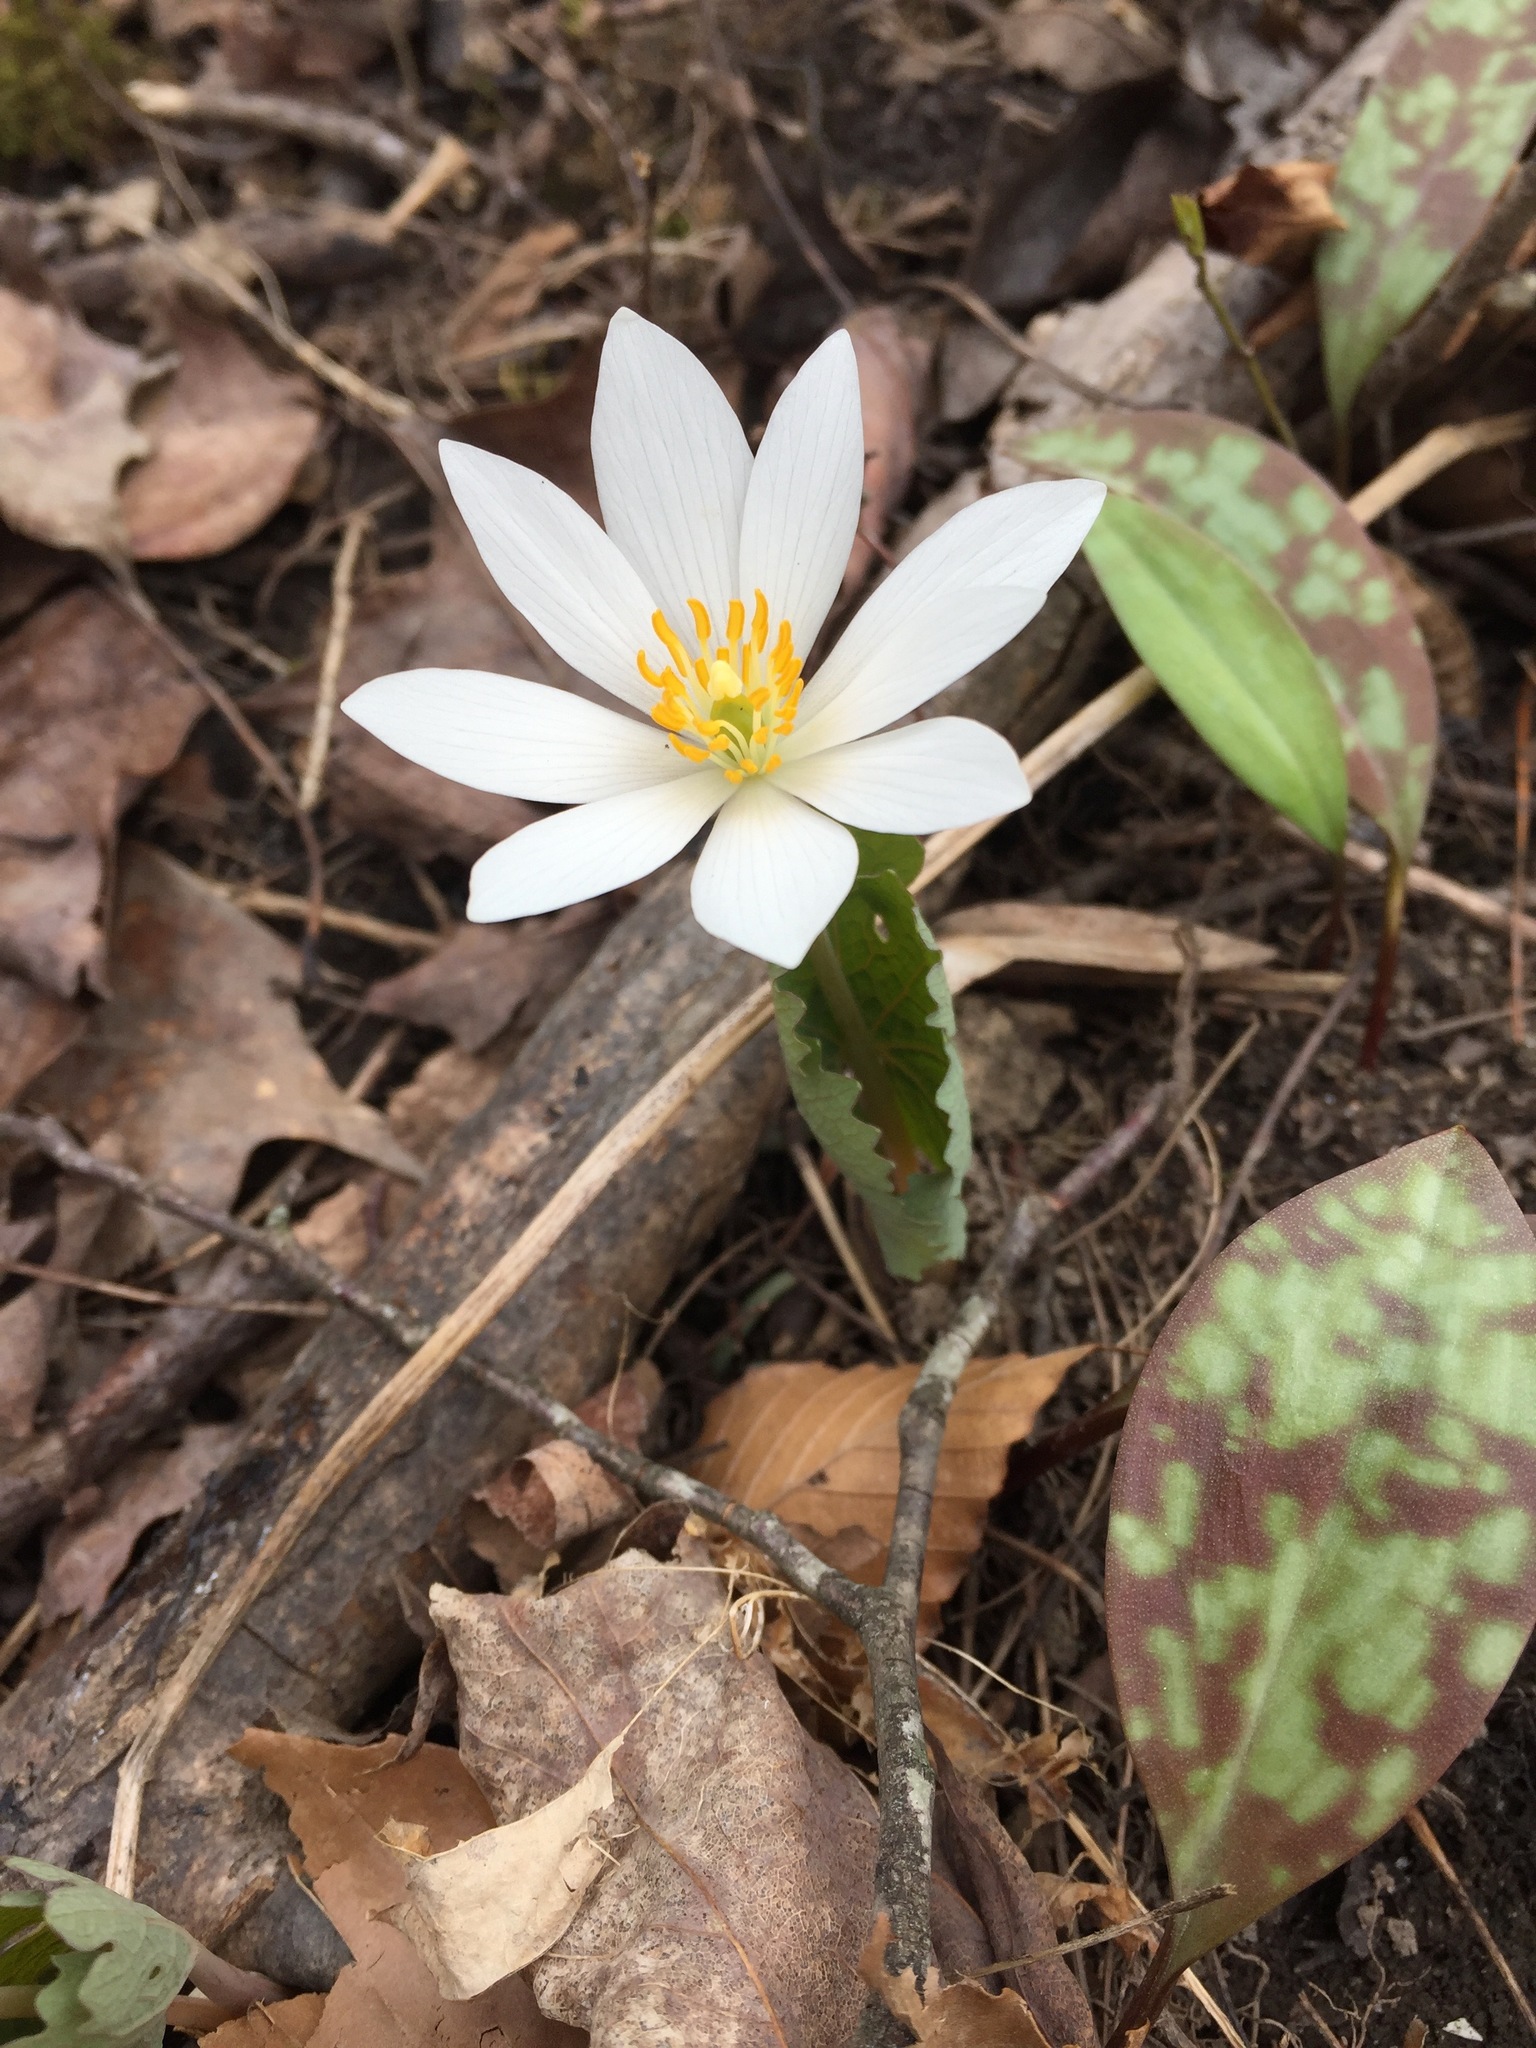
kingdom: Plantae
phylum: Tracheophyta
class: Magnoliopsida
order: Ranunculales
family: Papaveraceae
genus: Sanguinaria
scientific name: Sanguinaria canadensis
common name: Bloodroot
